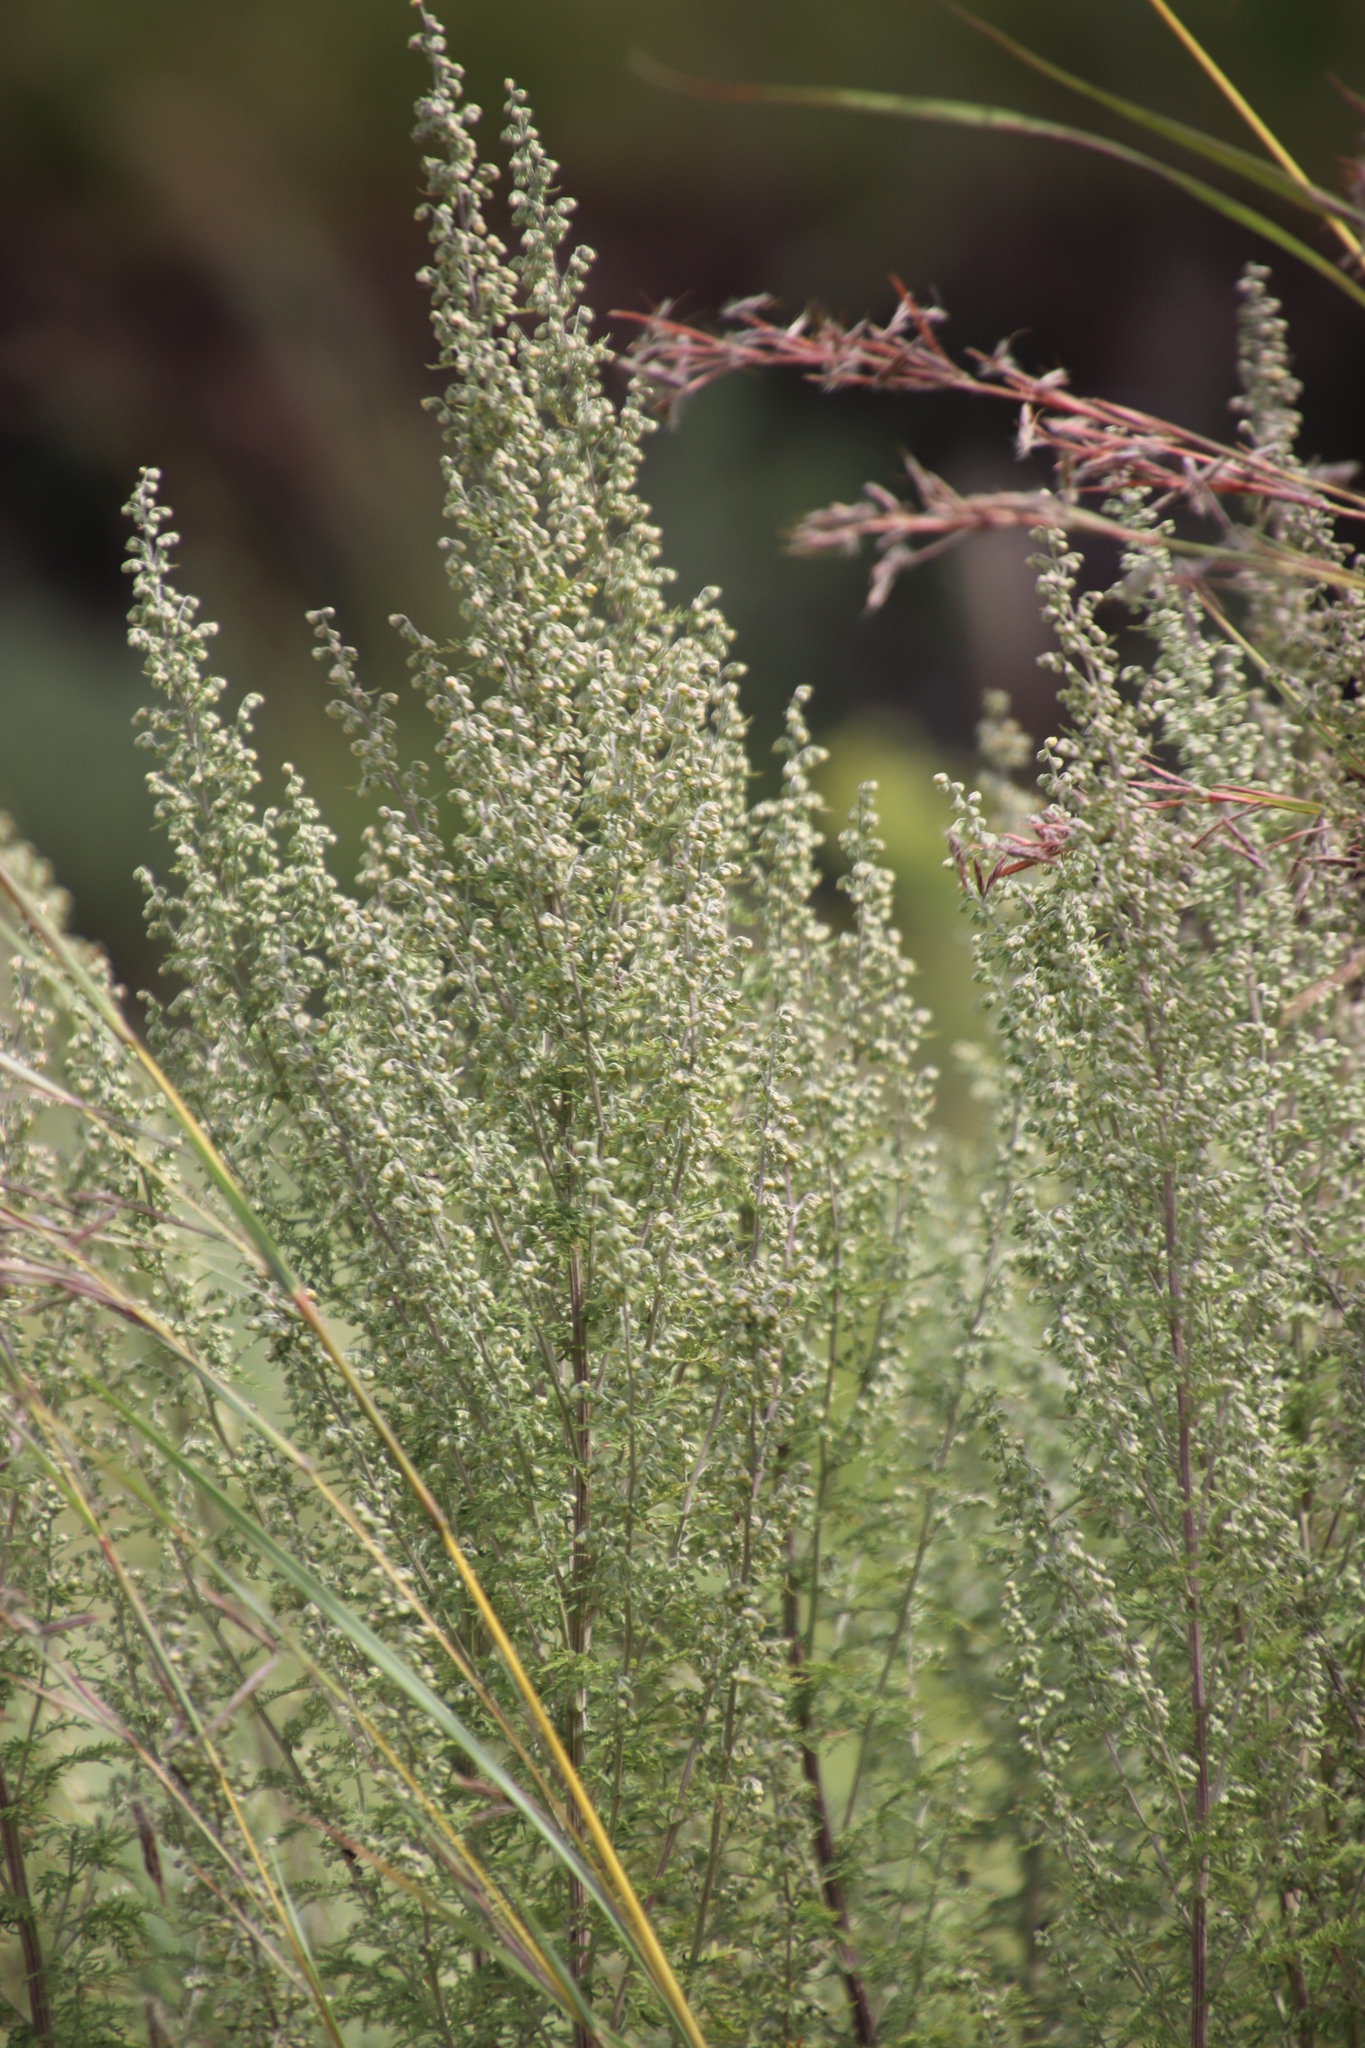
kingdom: Plantae
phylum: Tracheophyta
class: Magnoliopsida
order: Asterales
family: Asteraceae
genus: Artemisia
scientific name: Artemisia afra
